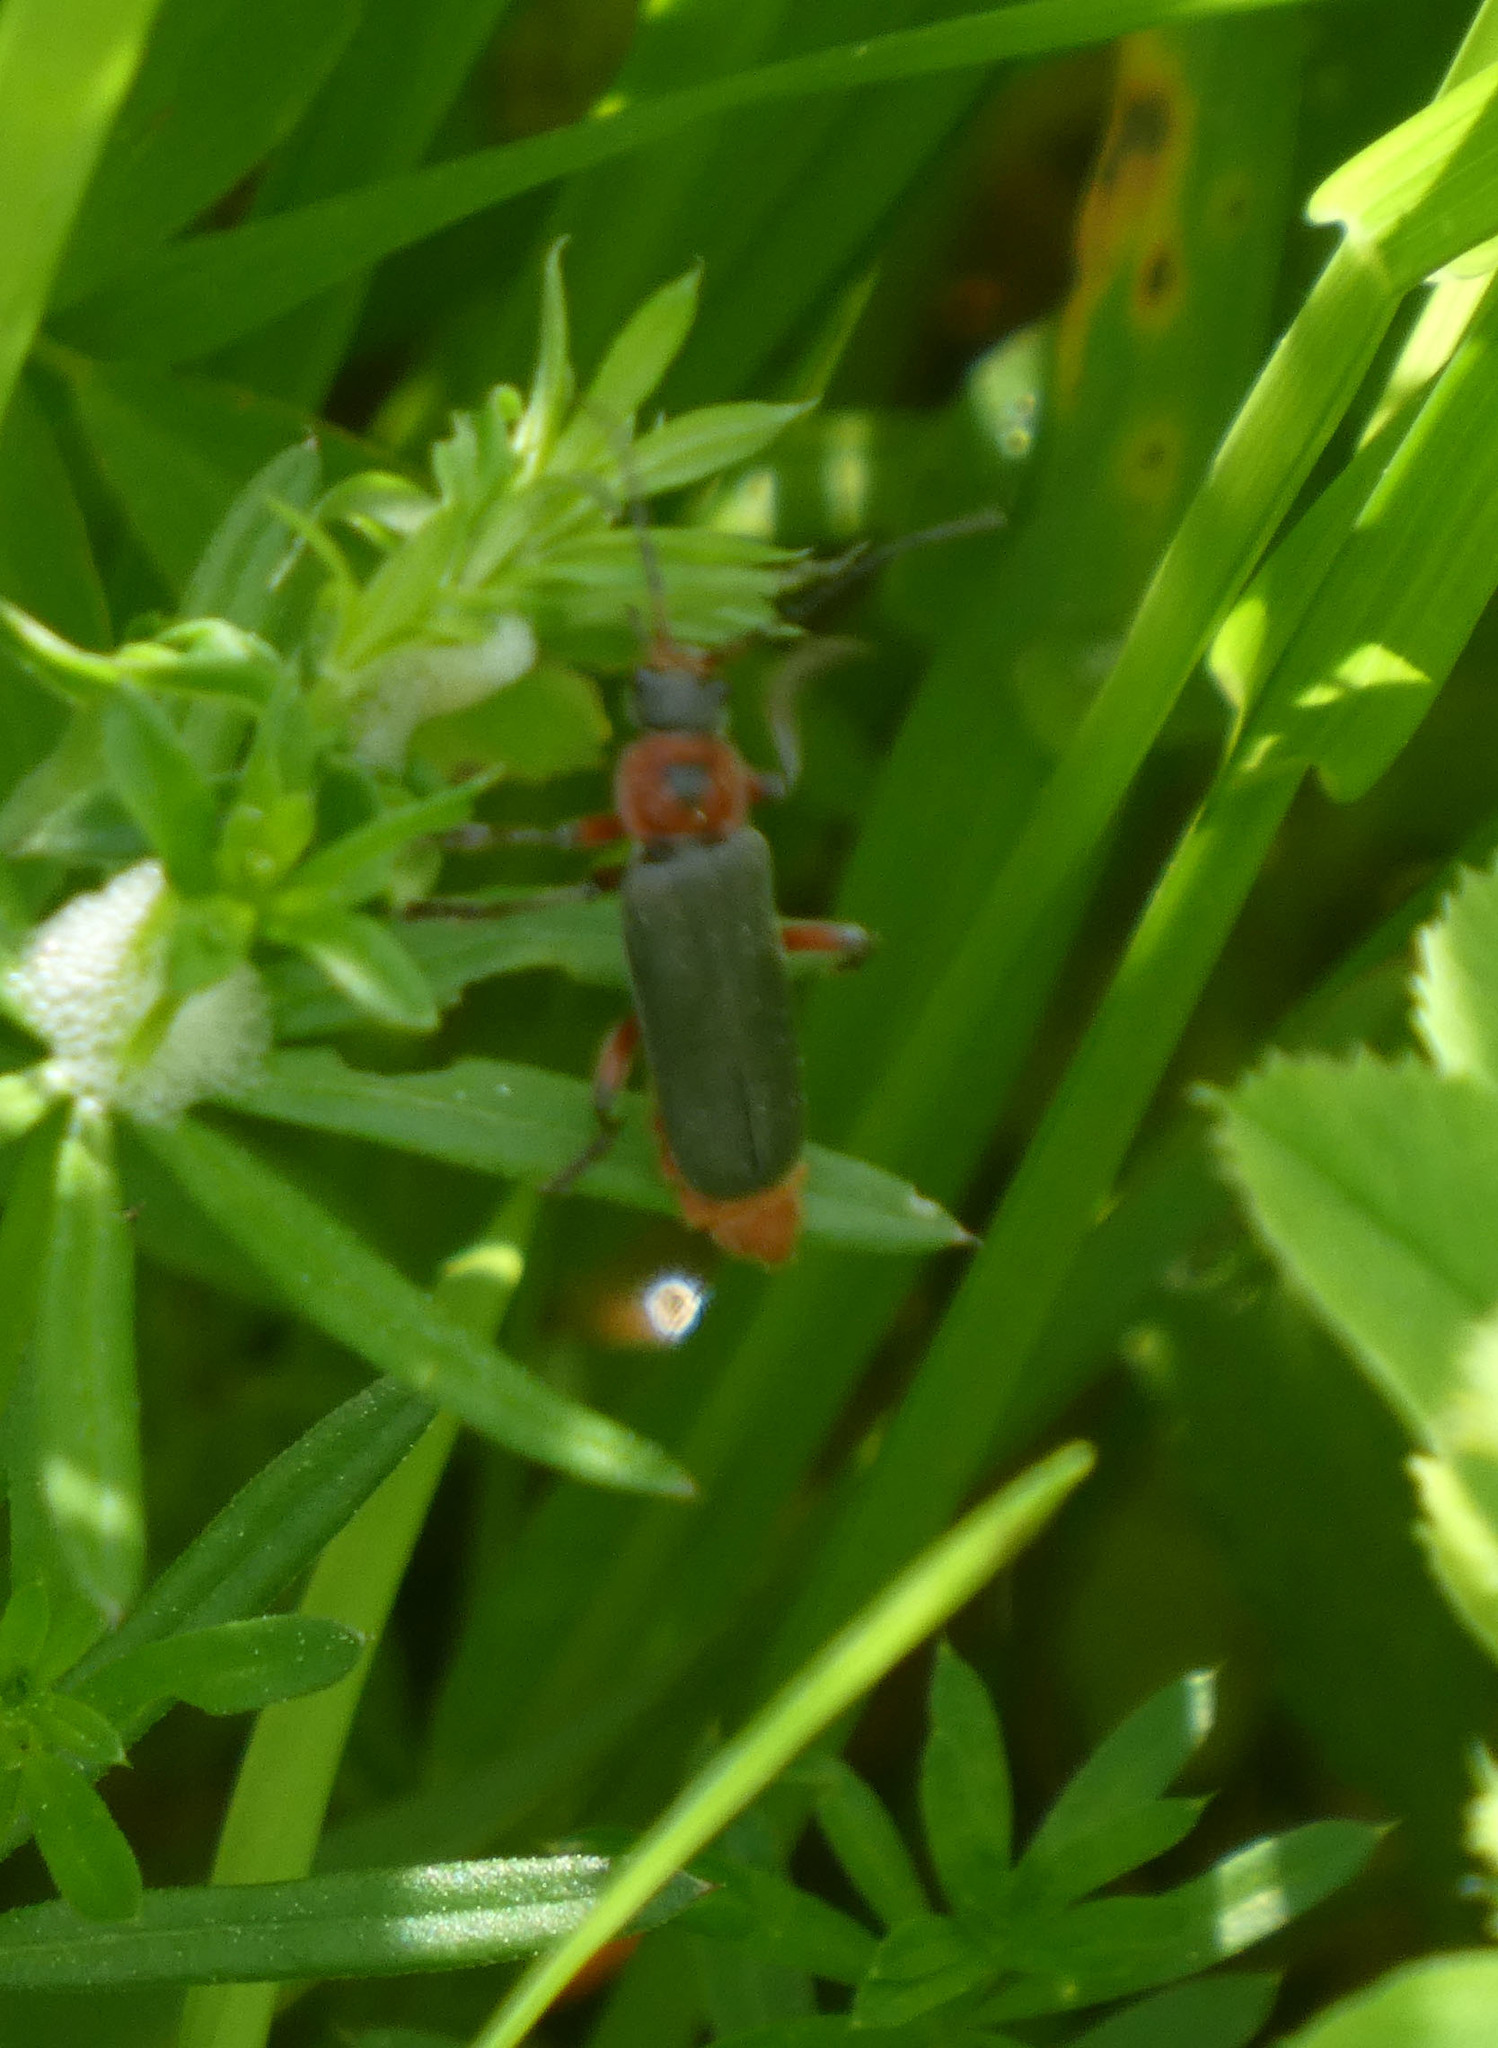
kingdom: Animalia
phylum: Arthropoda
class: Insecta
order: Coleoptera
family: Cantharidae
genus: Cantharis
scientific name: Cantharis rustica
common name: Soldier beetle
